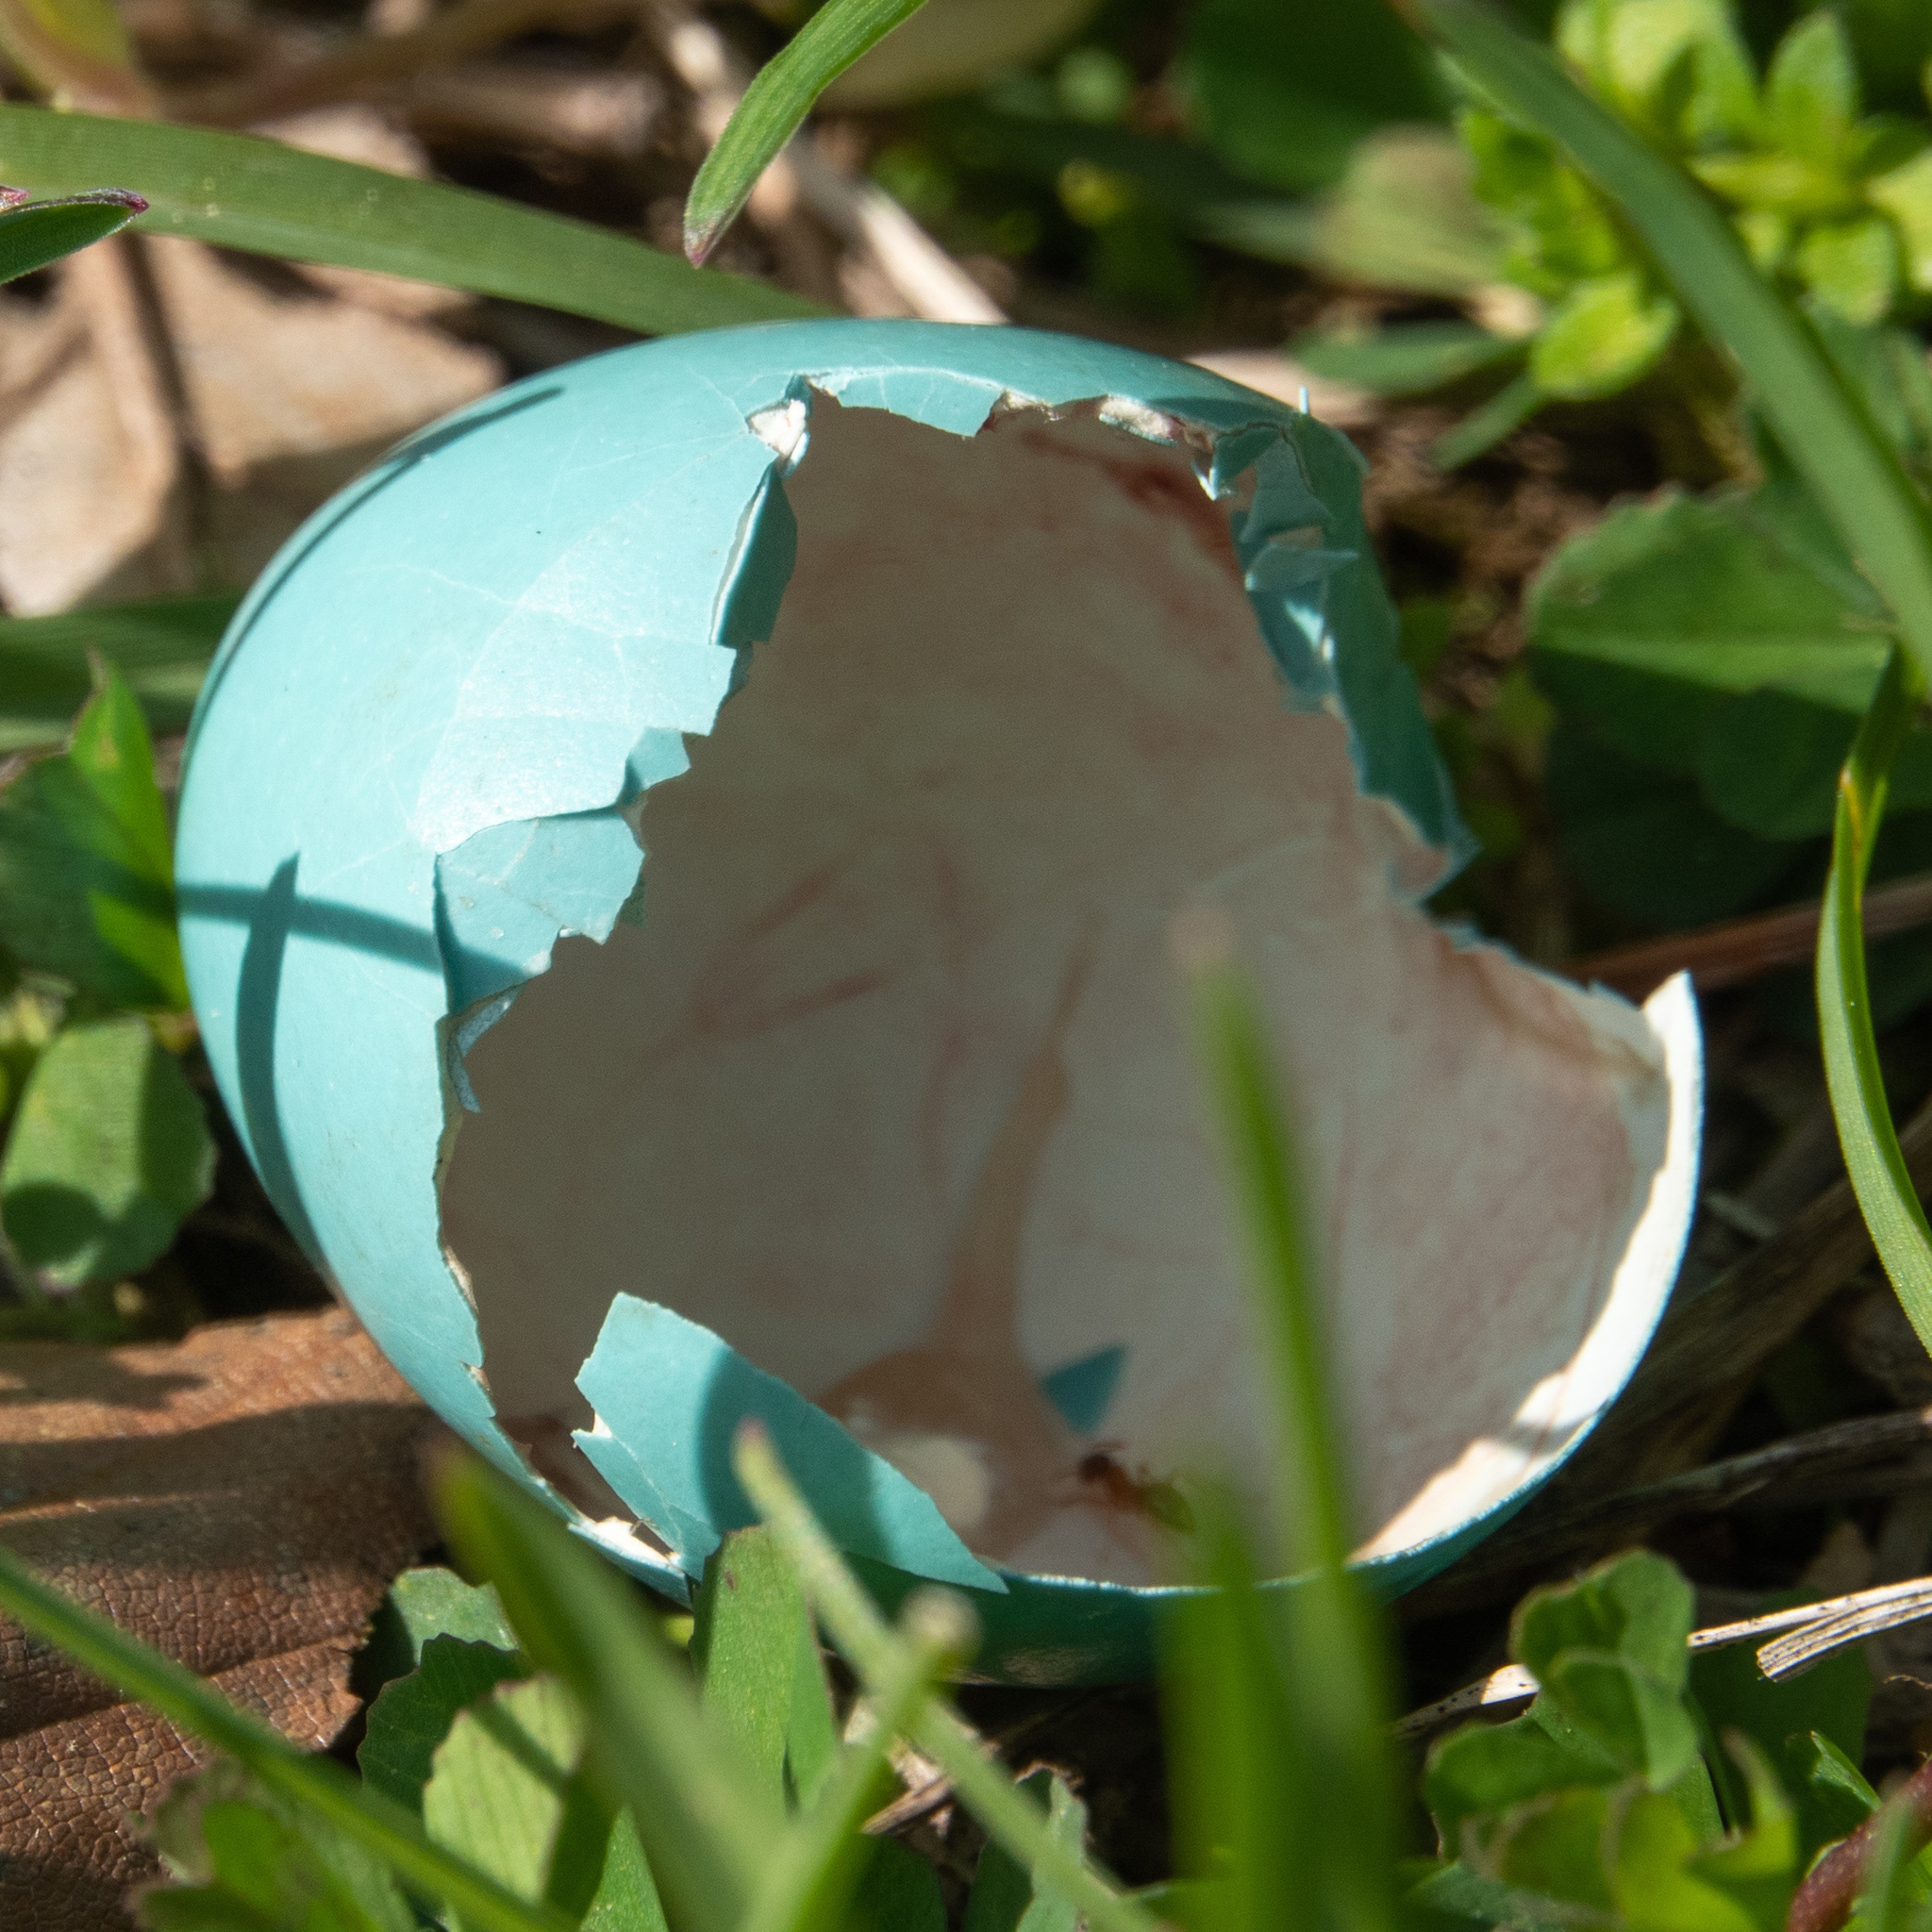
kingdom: Animalia
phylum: Chordata
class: Aves
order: Passeriformes
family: Turdidae
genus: Turdus
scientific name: Turdus migratorius
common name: American robin
